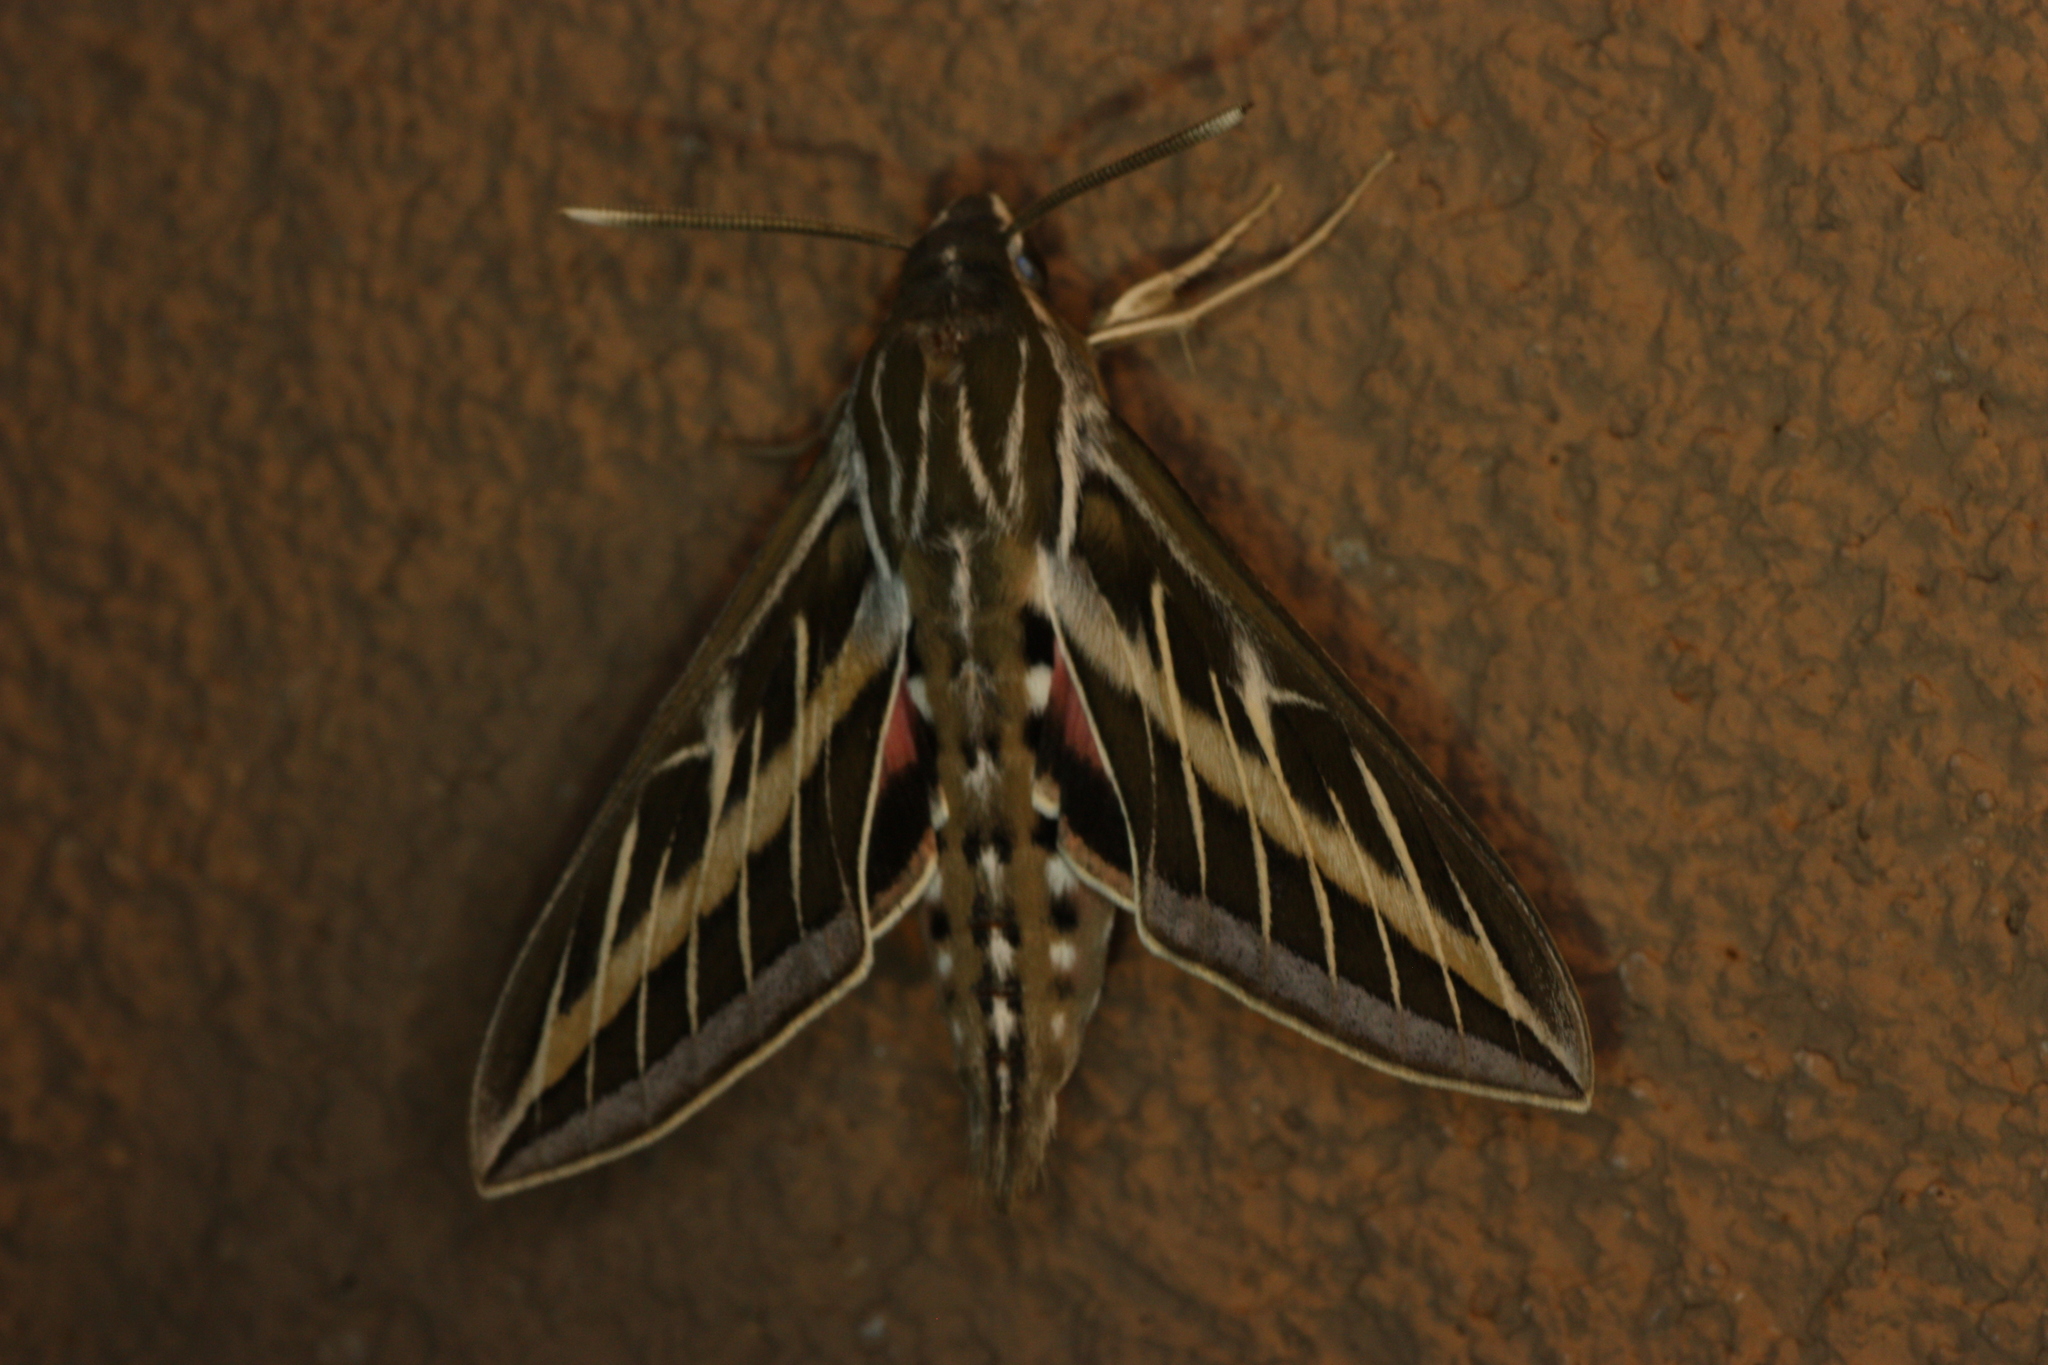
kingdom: Animalia
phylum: Arthropoda
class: Insecta
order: Lepidoptera
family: Sphingidae
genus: Hyles
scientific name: Hyles lineata
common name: White-lined sphinx
